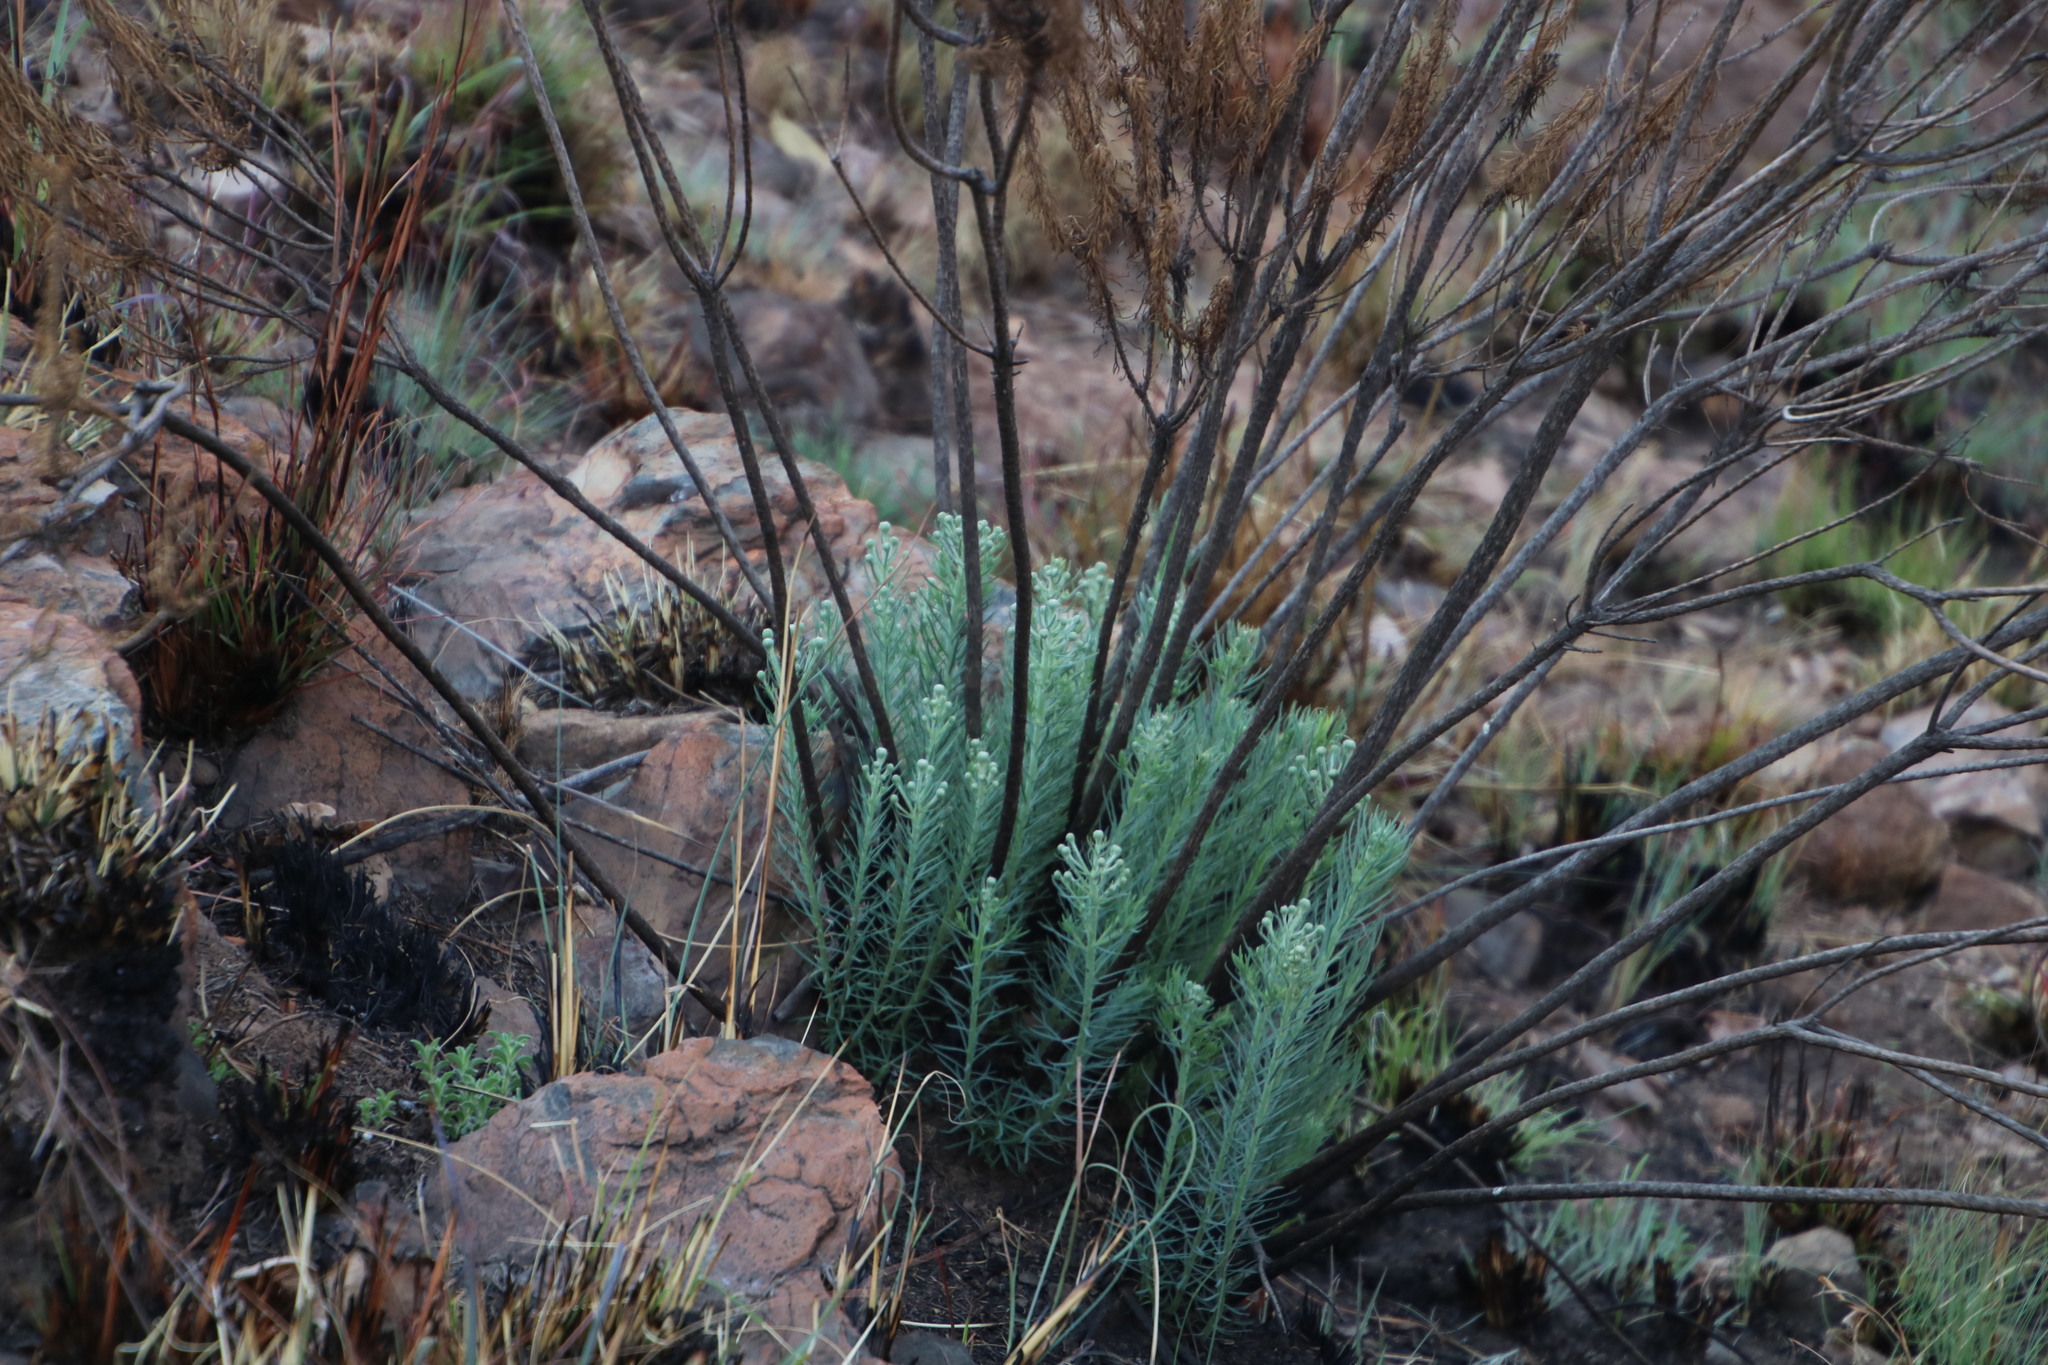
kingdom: Plantae
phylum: Tracheophyta
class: Magnoliopsida
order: Asterales
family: Asteraceae
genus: Phymaspermum
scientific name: Phymaspermum athanasioides
